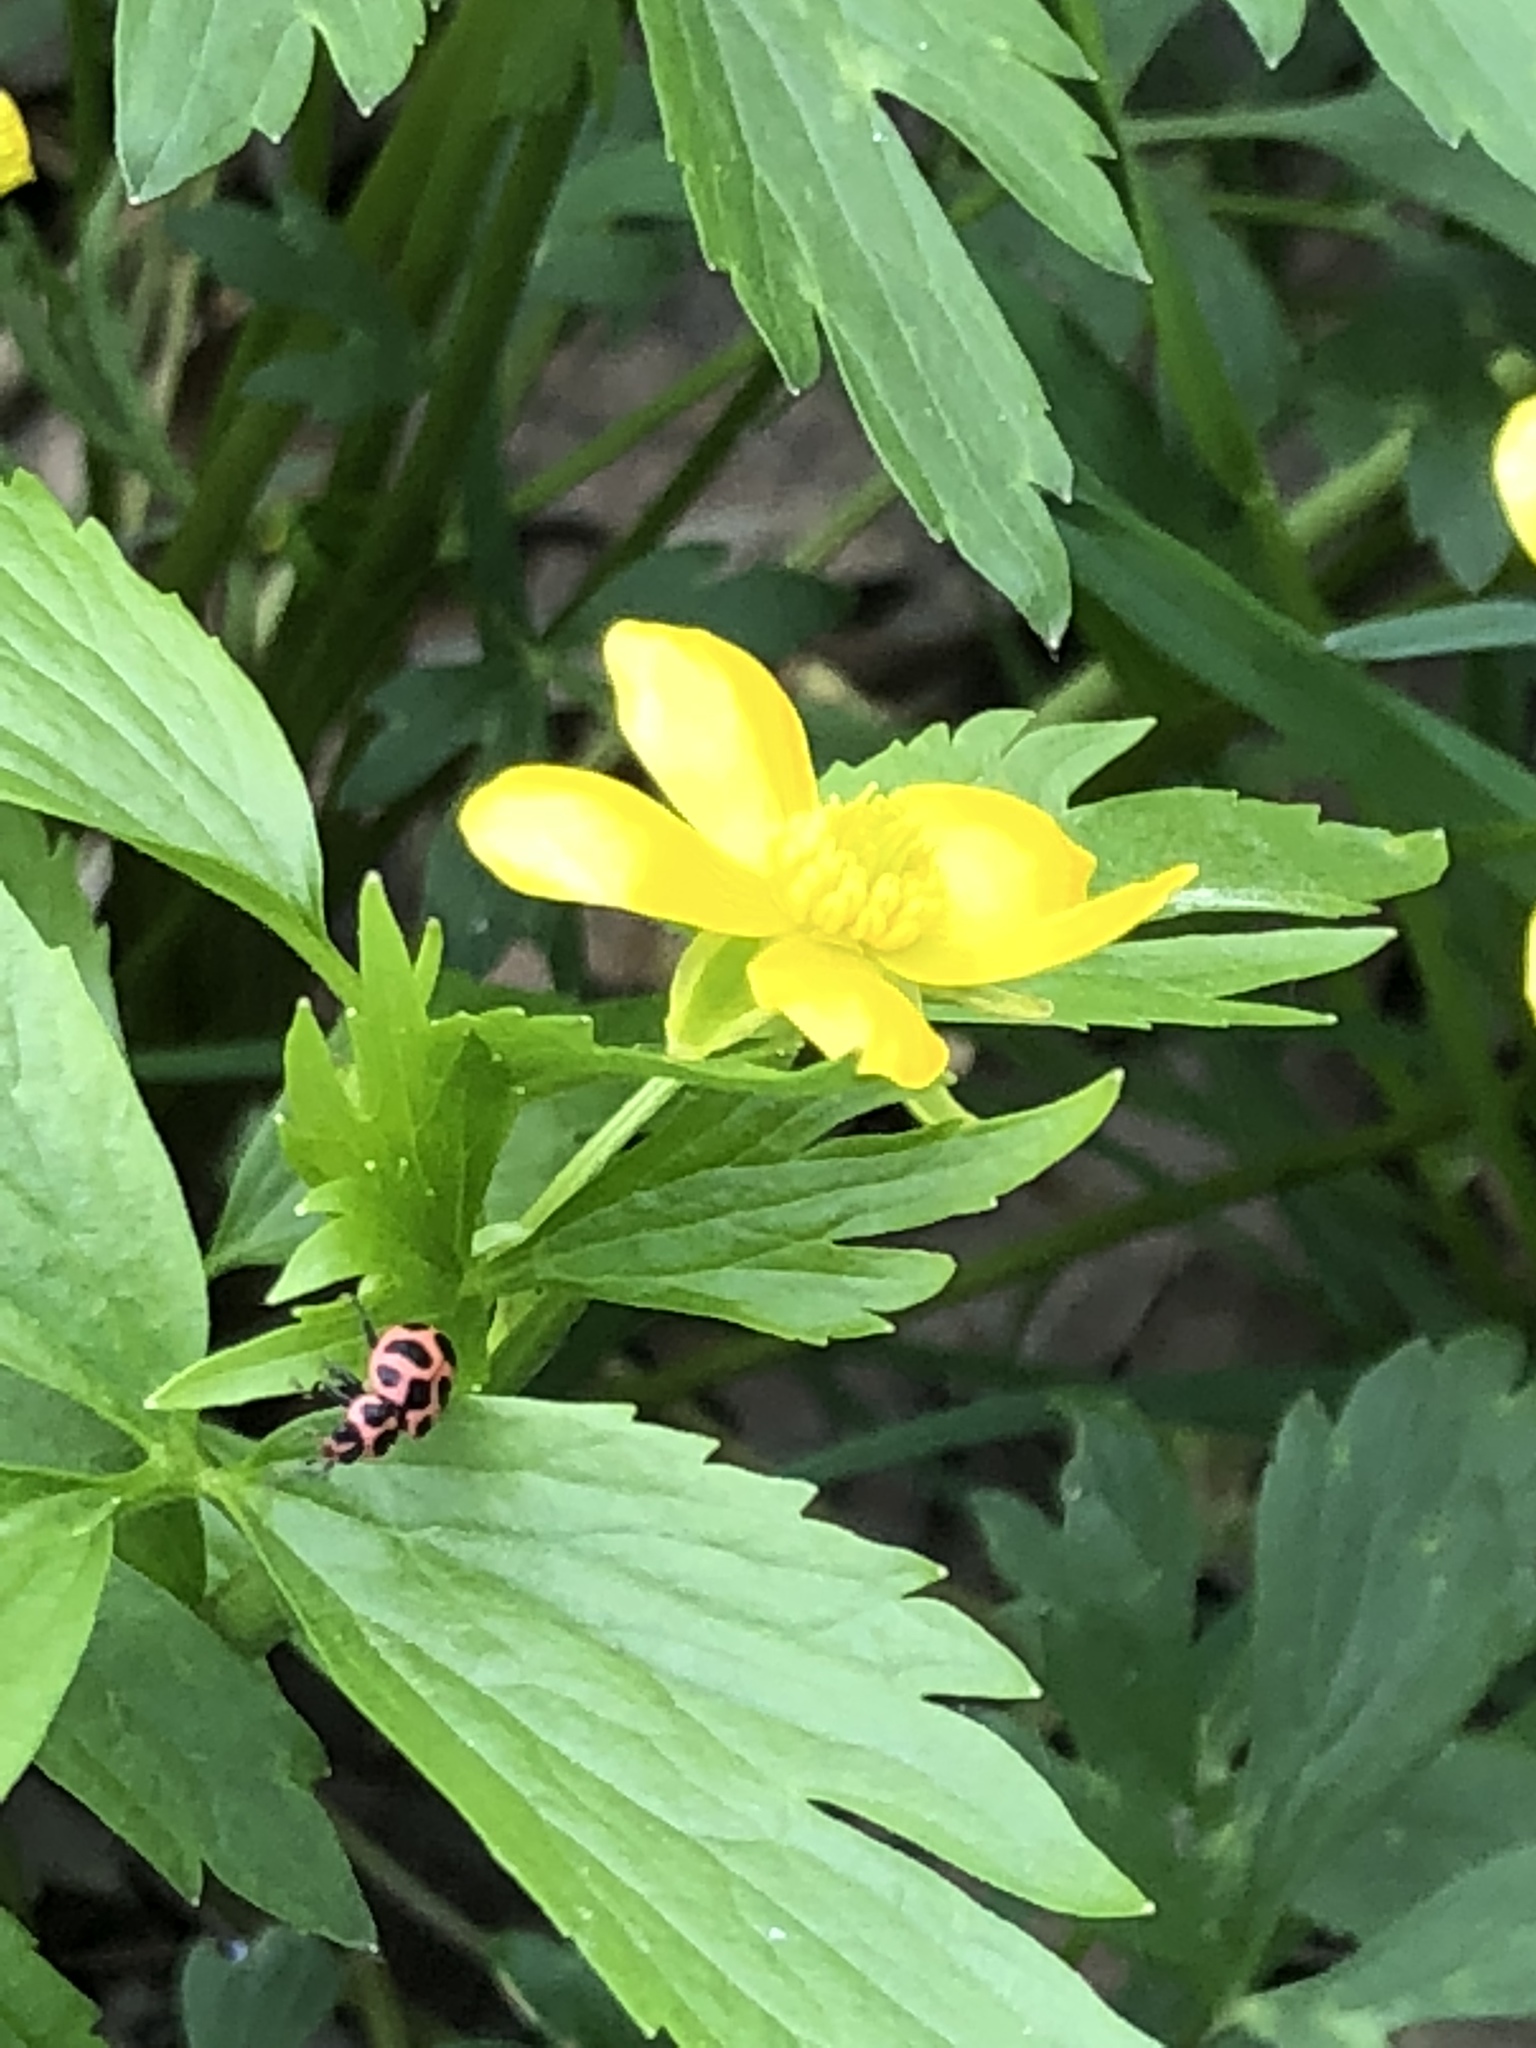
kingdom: Animalia
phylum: Arthropoda
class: Insecta
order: Coleoptera
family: Coccinellidae
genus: Coleomegilla
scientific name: Coleomegilla maculata
